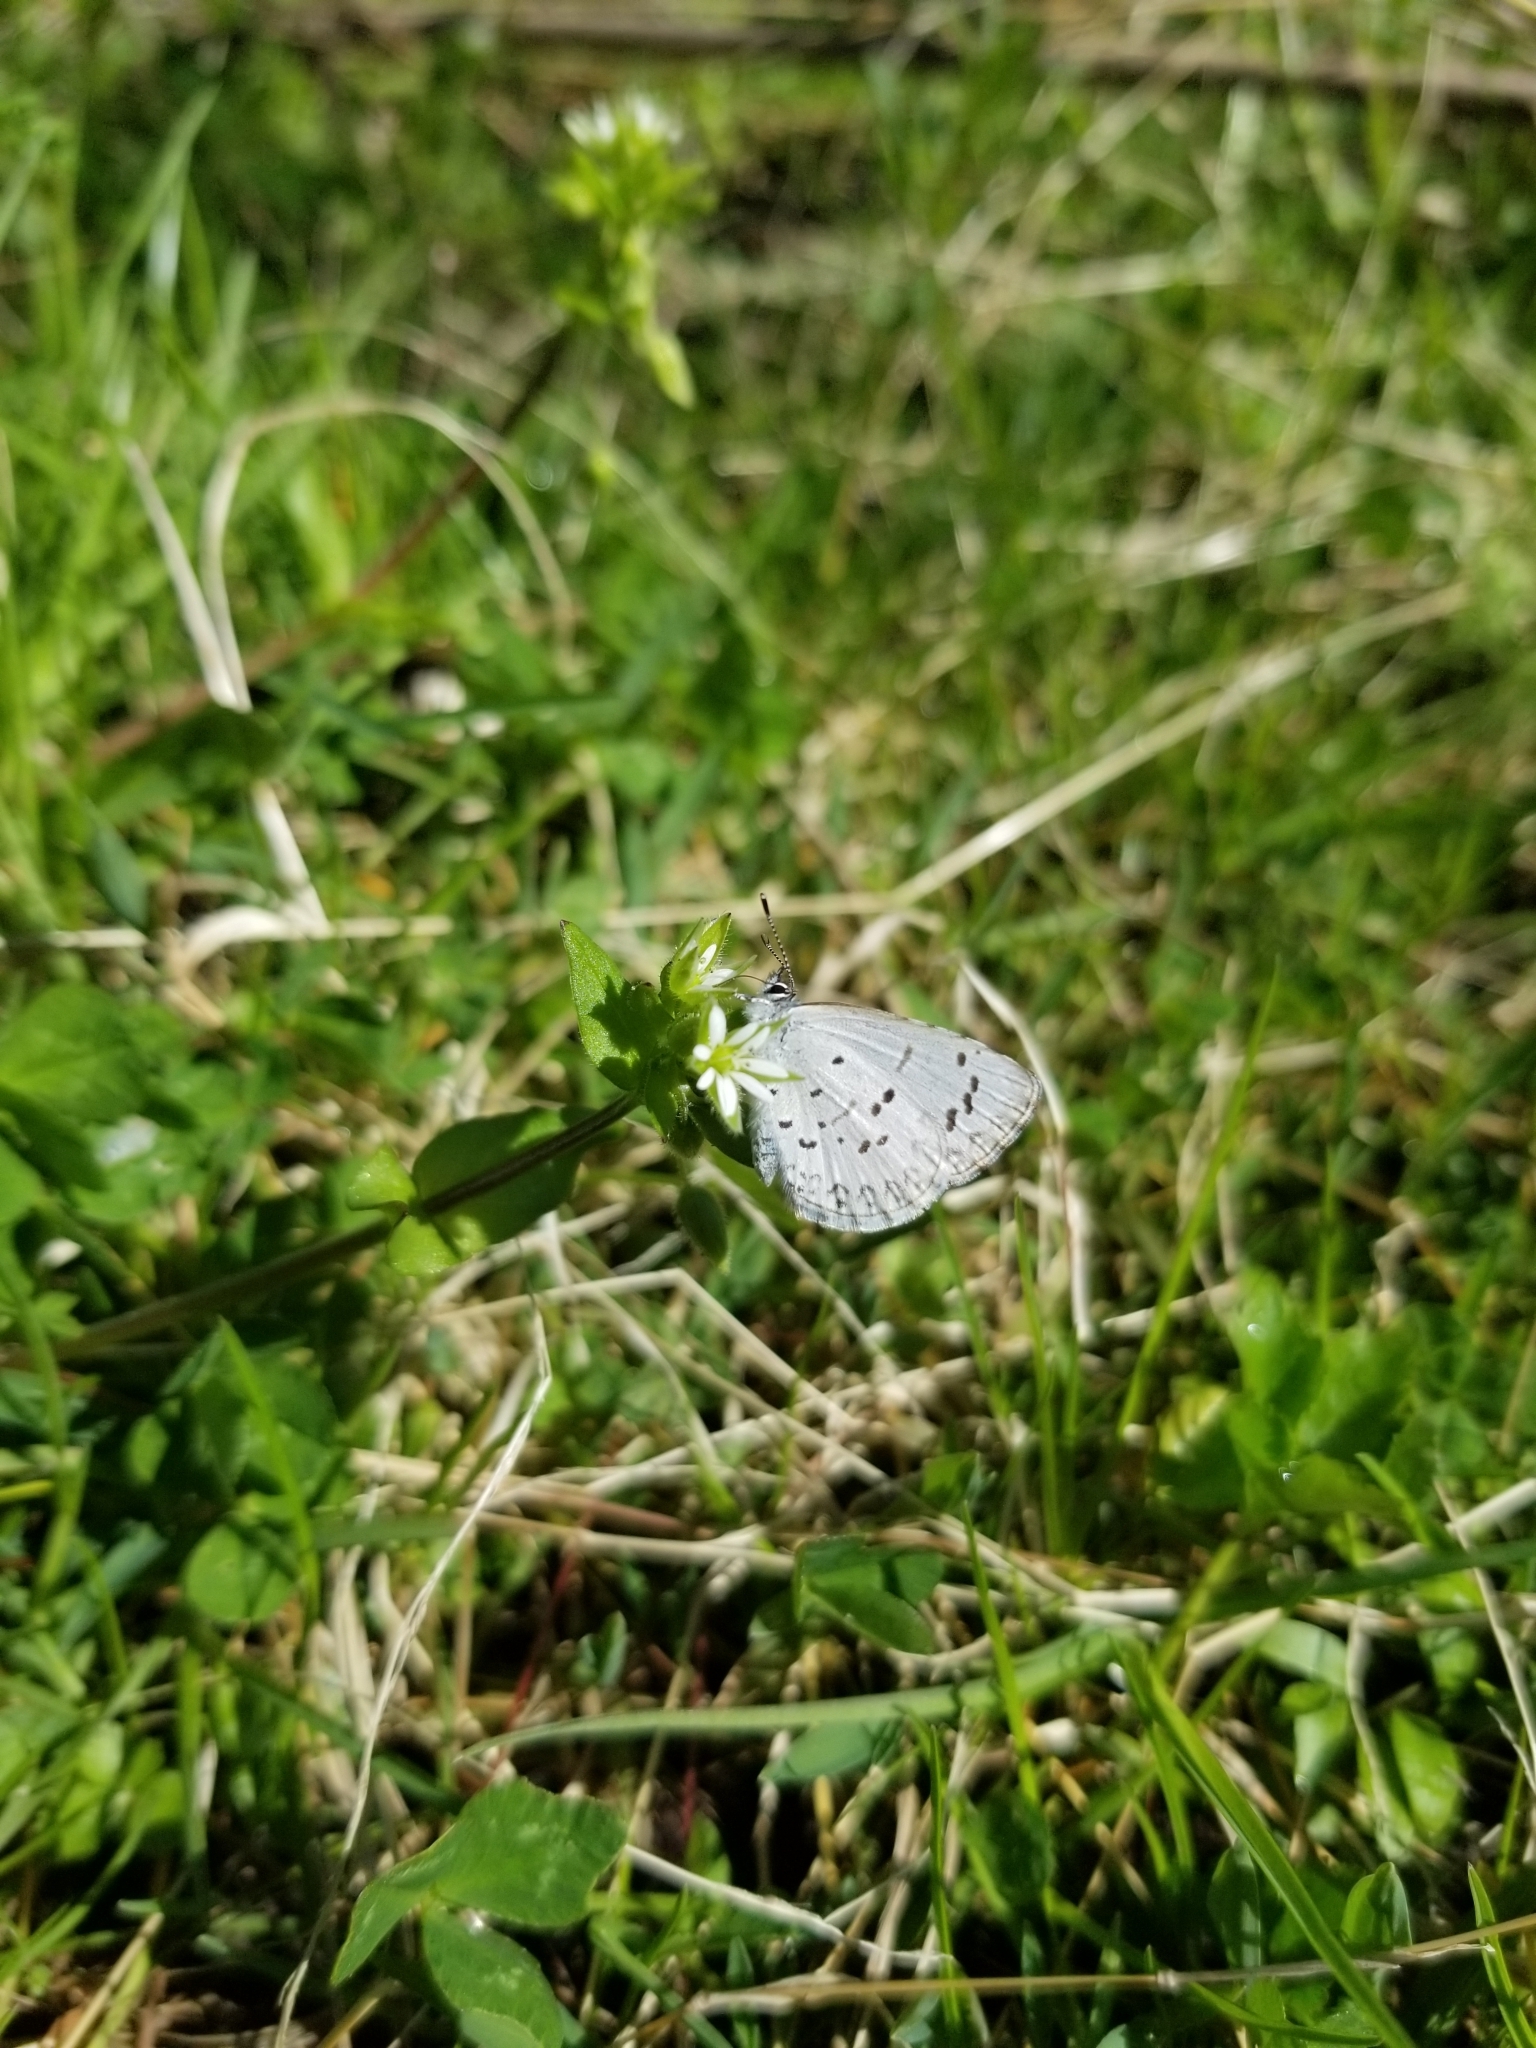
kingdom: Animalia
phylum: Arthropoda
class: Insecta
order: Lepidoptera
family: Lycaenidae
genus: Celastrina
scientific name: Celastrina ladon
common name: Spring azure
